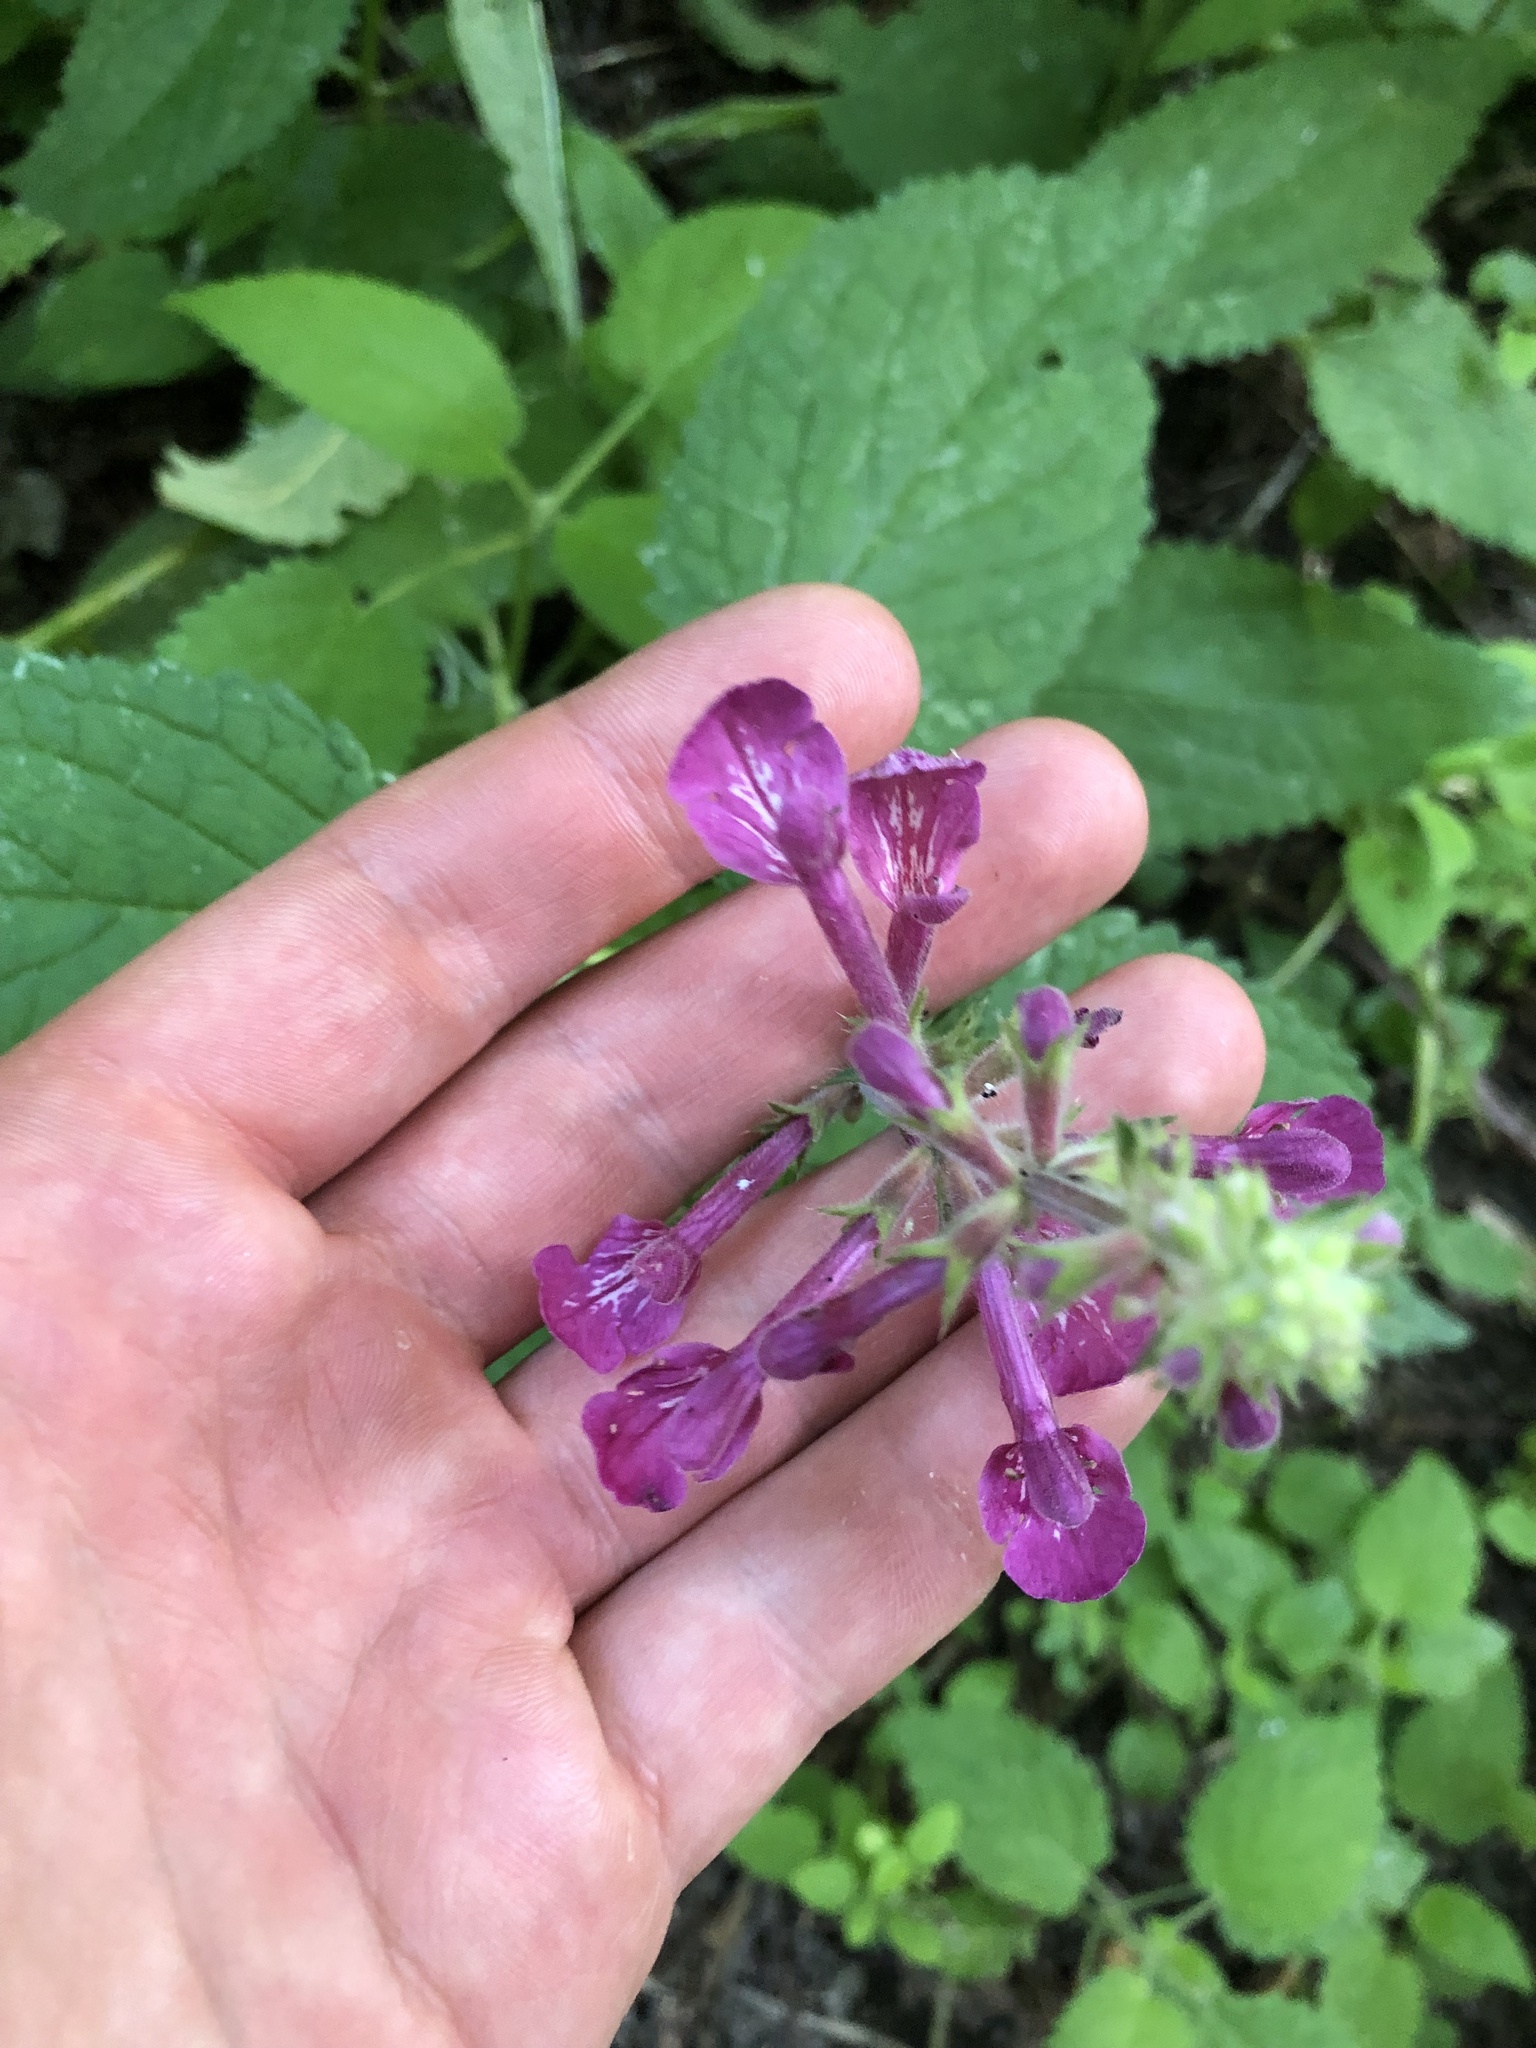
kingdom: Plantae
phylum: Tracheophyta
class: Magnoliopsida
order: Lamiales
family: Lamiaceae
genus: Stachys
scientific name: Stachys chamissonis
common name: Coastal hedge-nettle
